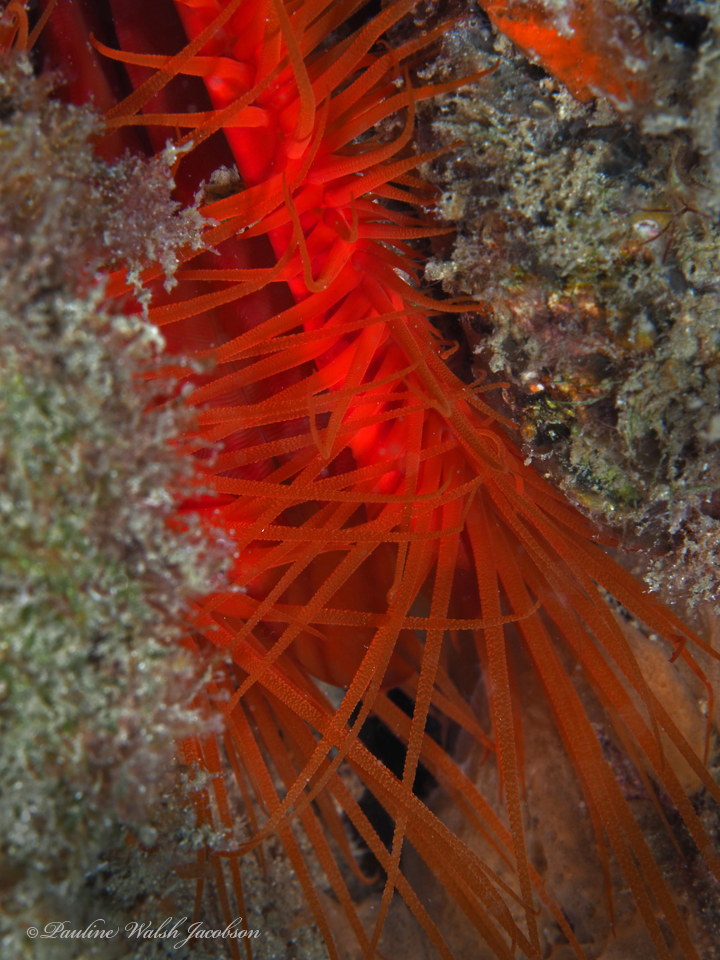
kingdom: Animalia
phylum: Mollusca
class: Bivalvia
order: Limida
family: Limidae
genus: Ctenoides
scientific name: Ctenoides scaber
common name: Rough fileclam
